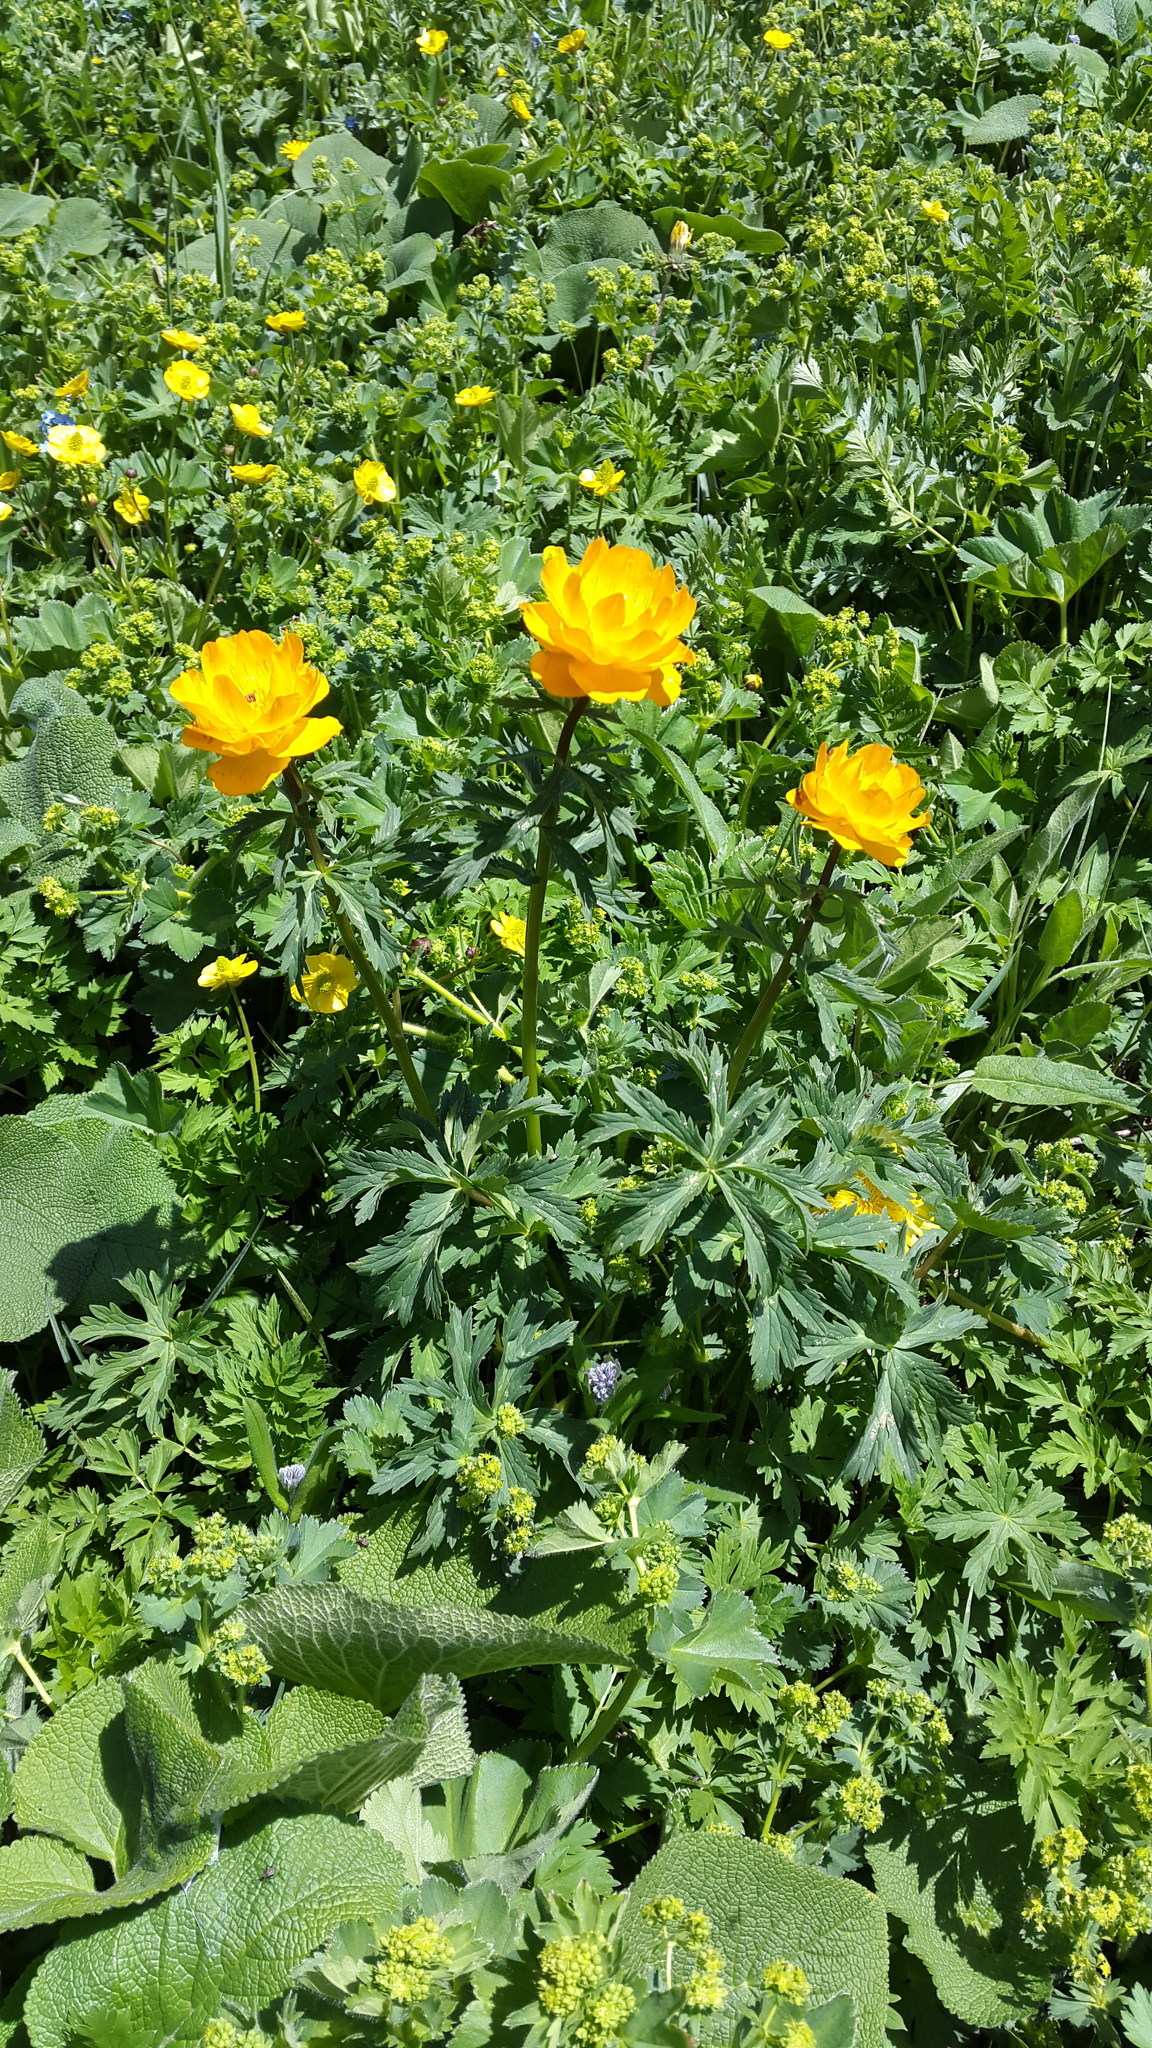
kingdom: Plantae
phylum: Tracheophyta
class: Magnoliopsida
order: Ranunculales
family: Ranunculaceae
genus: Trollius
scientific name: Trollius asiaticus
